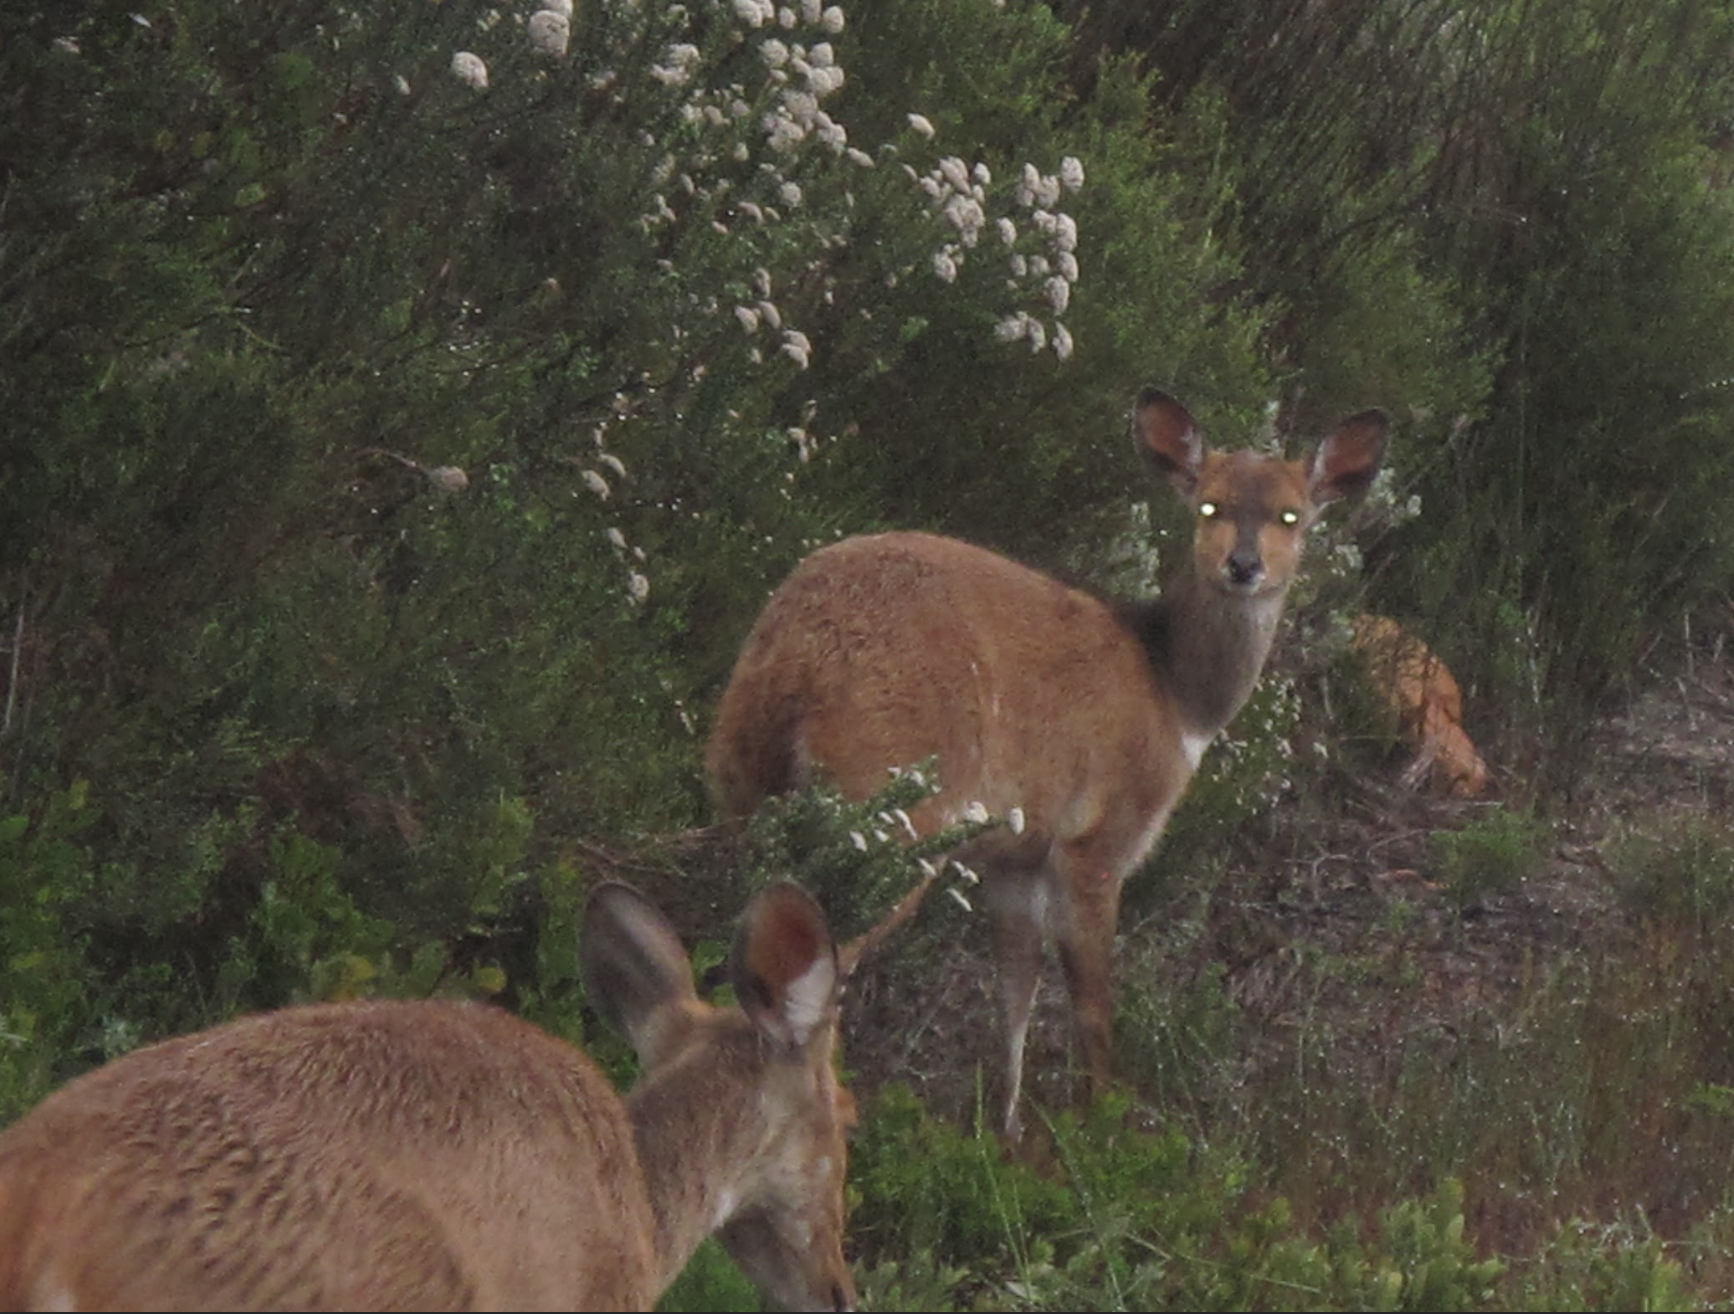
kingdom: Animalia
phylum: Chordata
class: Mammalia
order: Artiodactyla
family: Bovidae
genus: Tragelaphus
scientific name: Tragelaphus scriptus
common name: Bushbuck
